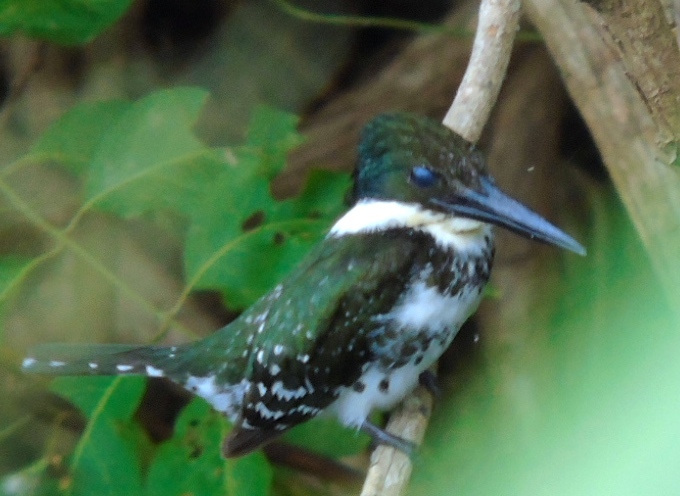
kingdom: Animalia
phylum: Chordata
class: Aves
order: Coraciiformes
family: Alcedinidae
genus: Chloroceryle
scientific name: Chloroceryle americana
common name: Green kingfisher
